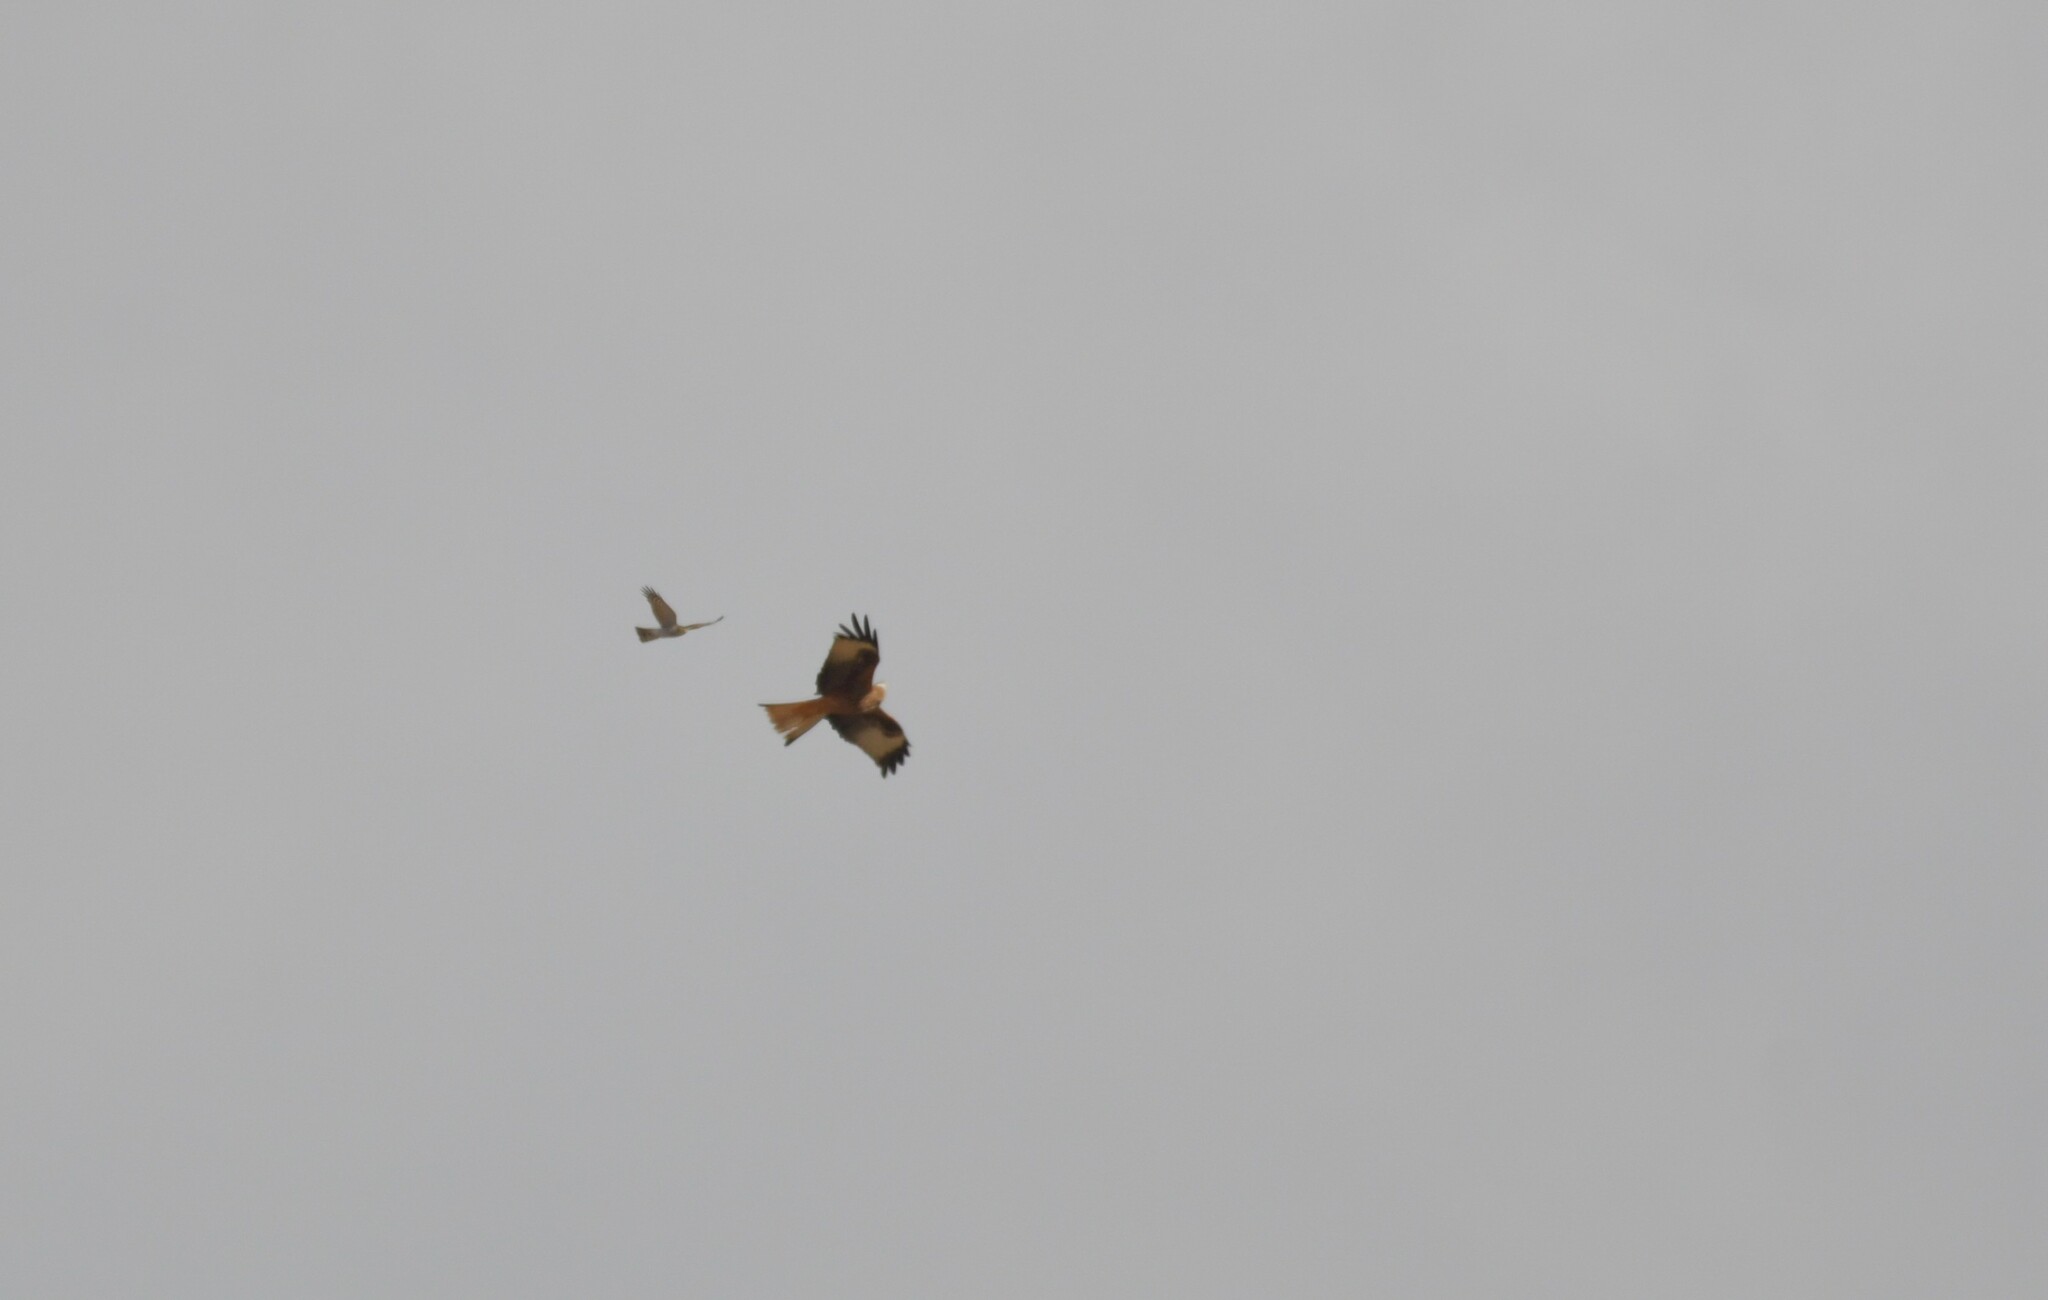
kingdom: Animalia
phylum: Chordata
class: Aves
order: Accipitriformes
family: Accipitridae
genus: Milvus
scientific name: Milvus milvus
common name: Red kite
